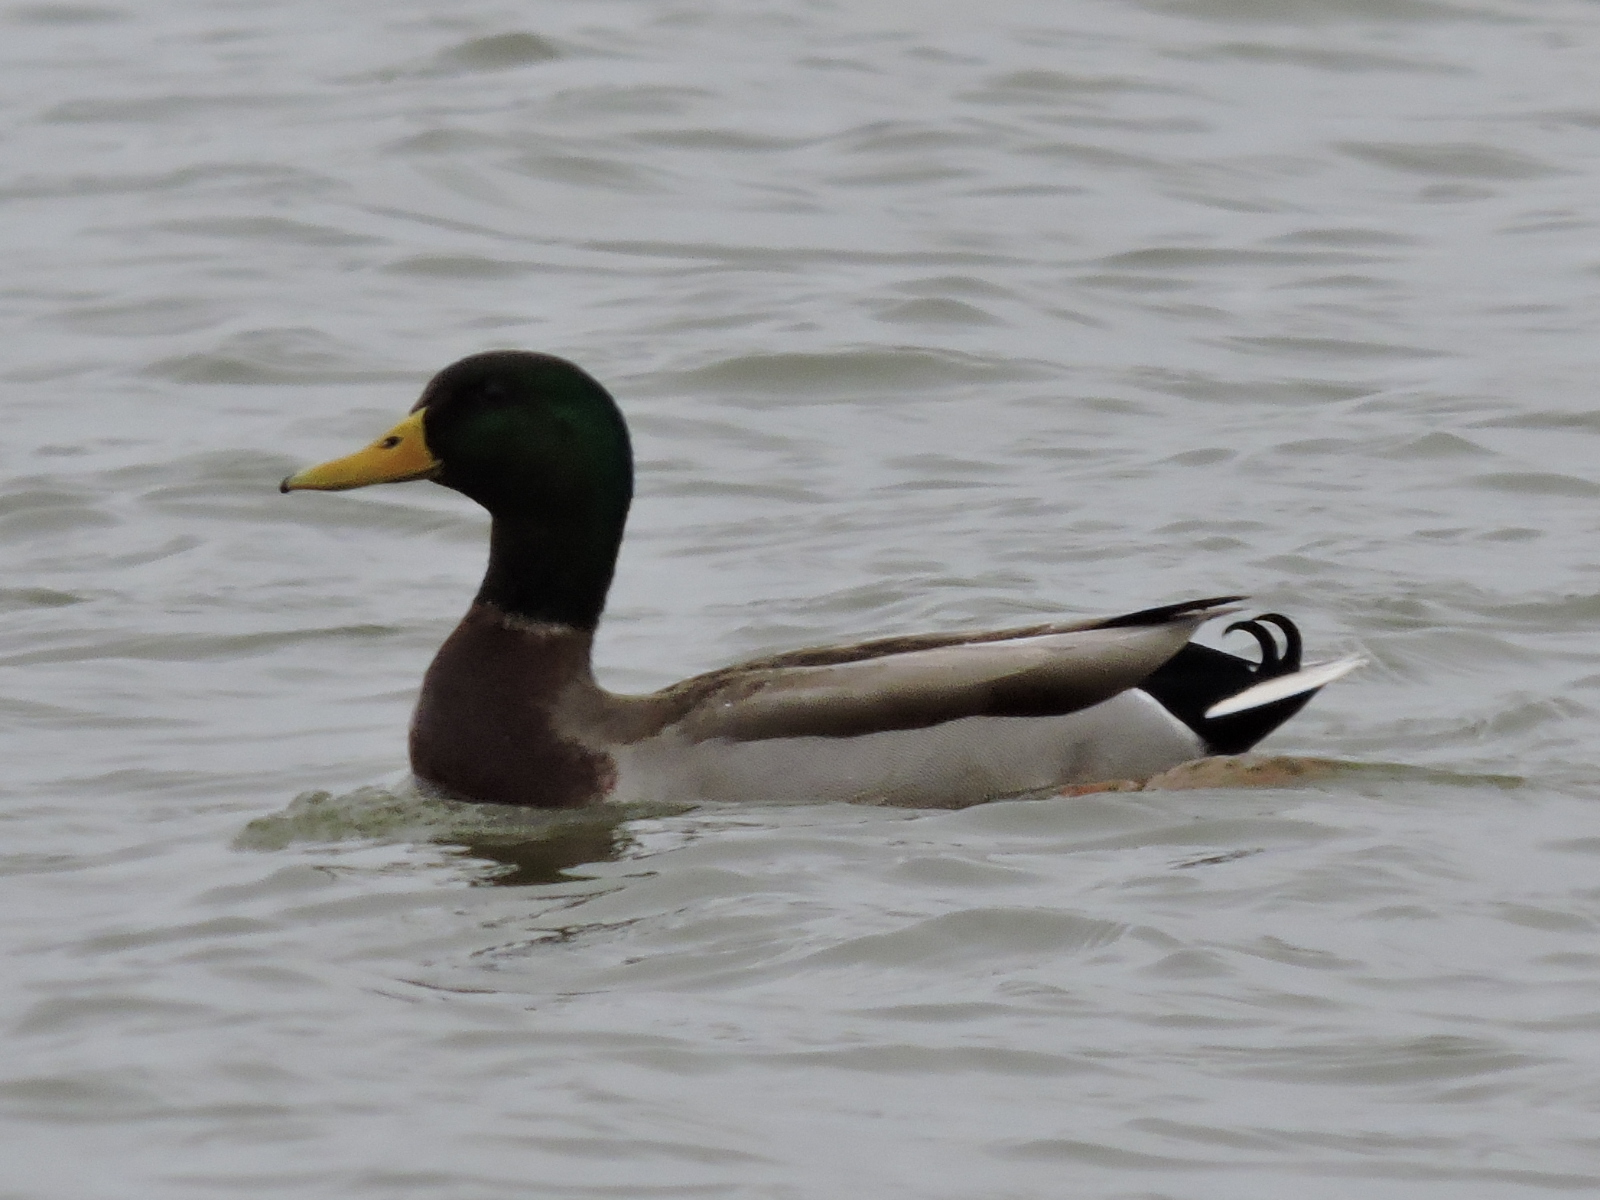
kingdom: Animalia
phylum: Chordata
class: Aves
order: Anseriformes
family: Anatidae
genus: Anas
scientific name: Anas platyrhynchos
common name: Mallard
